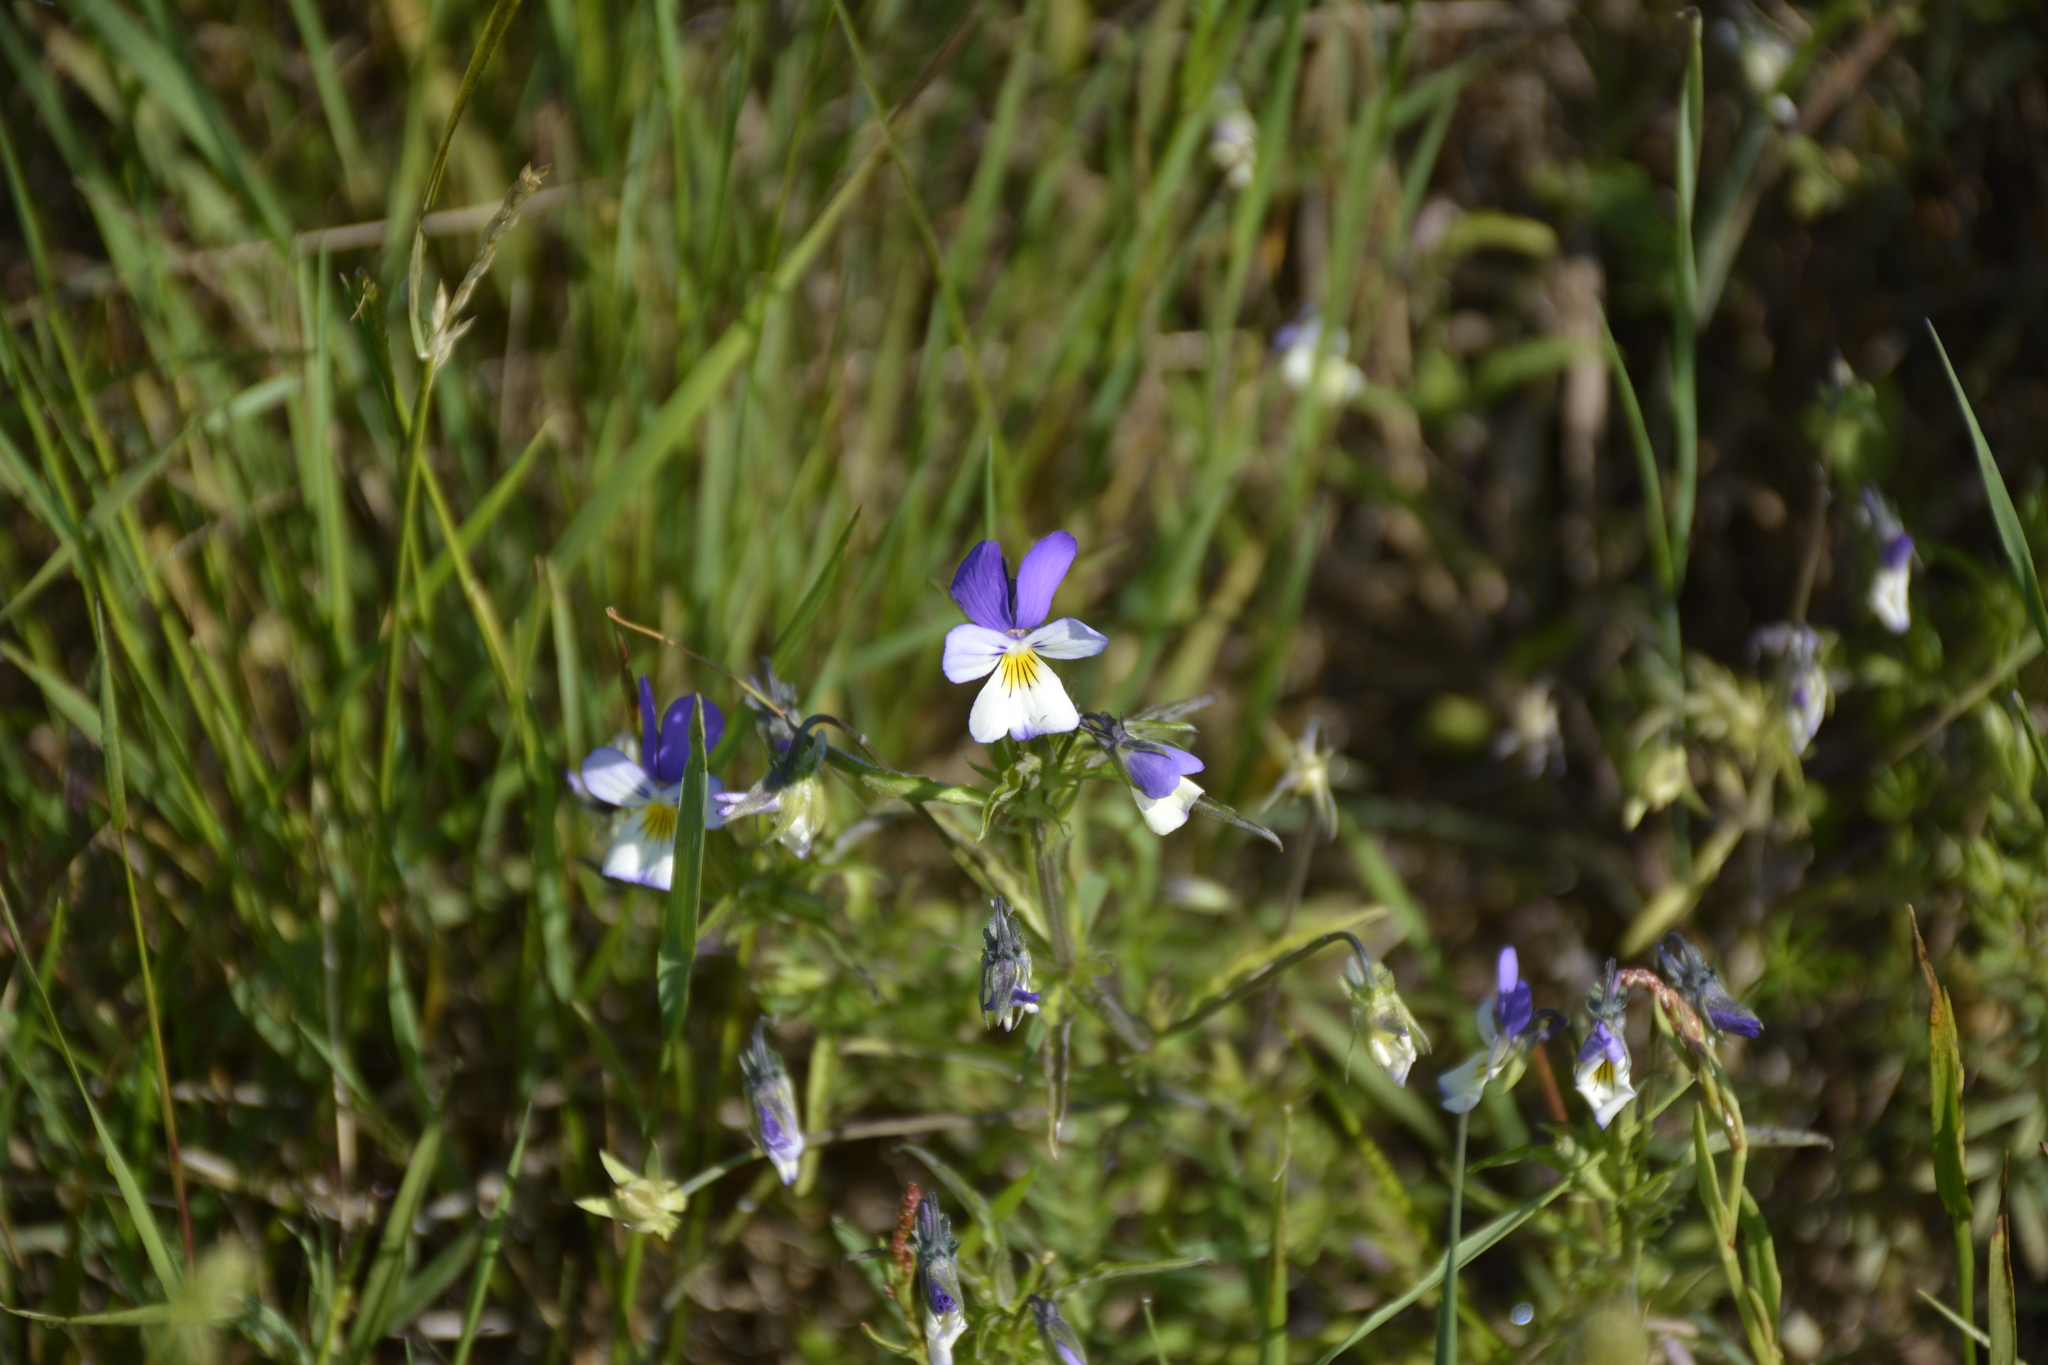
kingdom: Plantae
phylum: Tracheophyta
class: Magnoliopsida
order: Malpighiales
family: Violaceae
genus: Viola
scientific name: Viola tricolor
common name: Pansy
